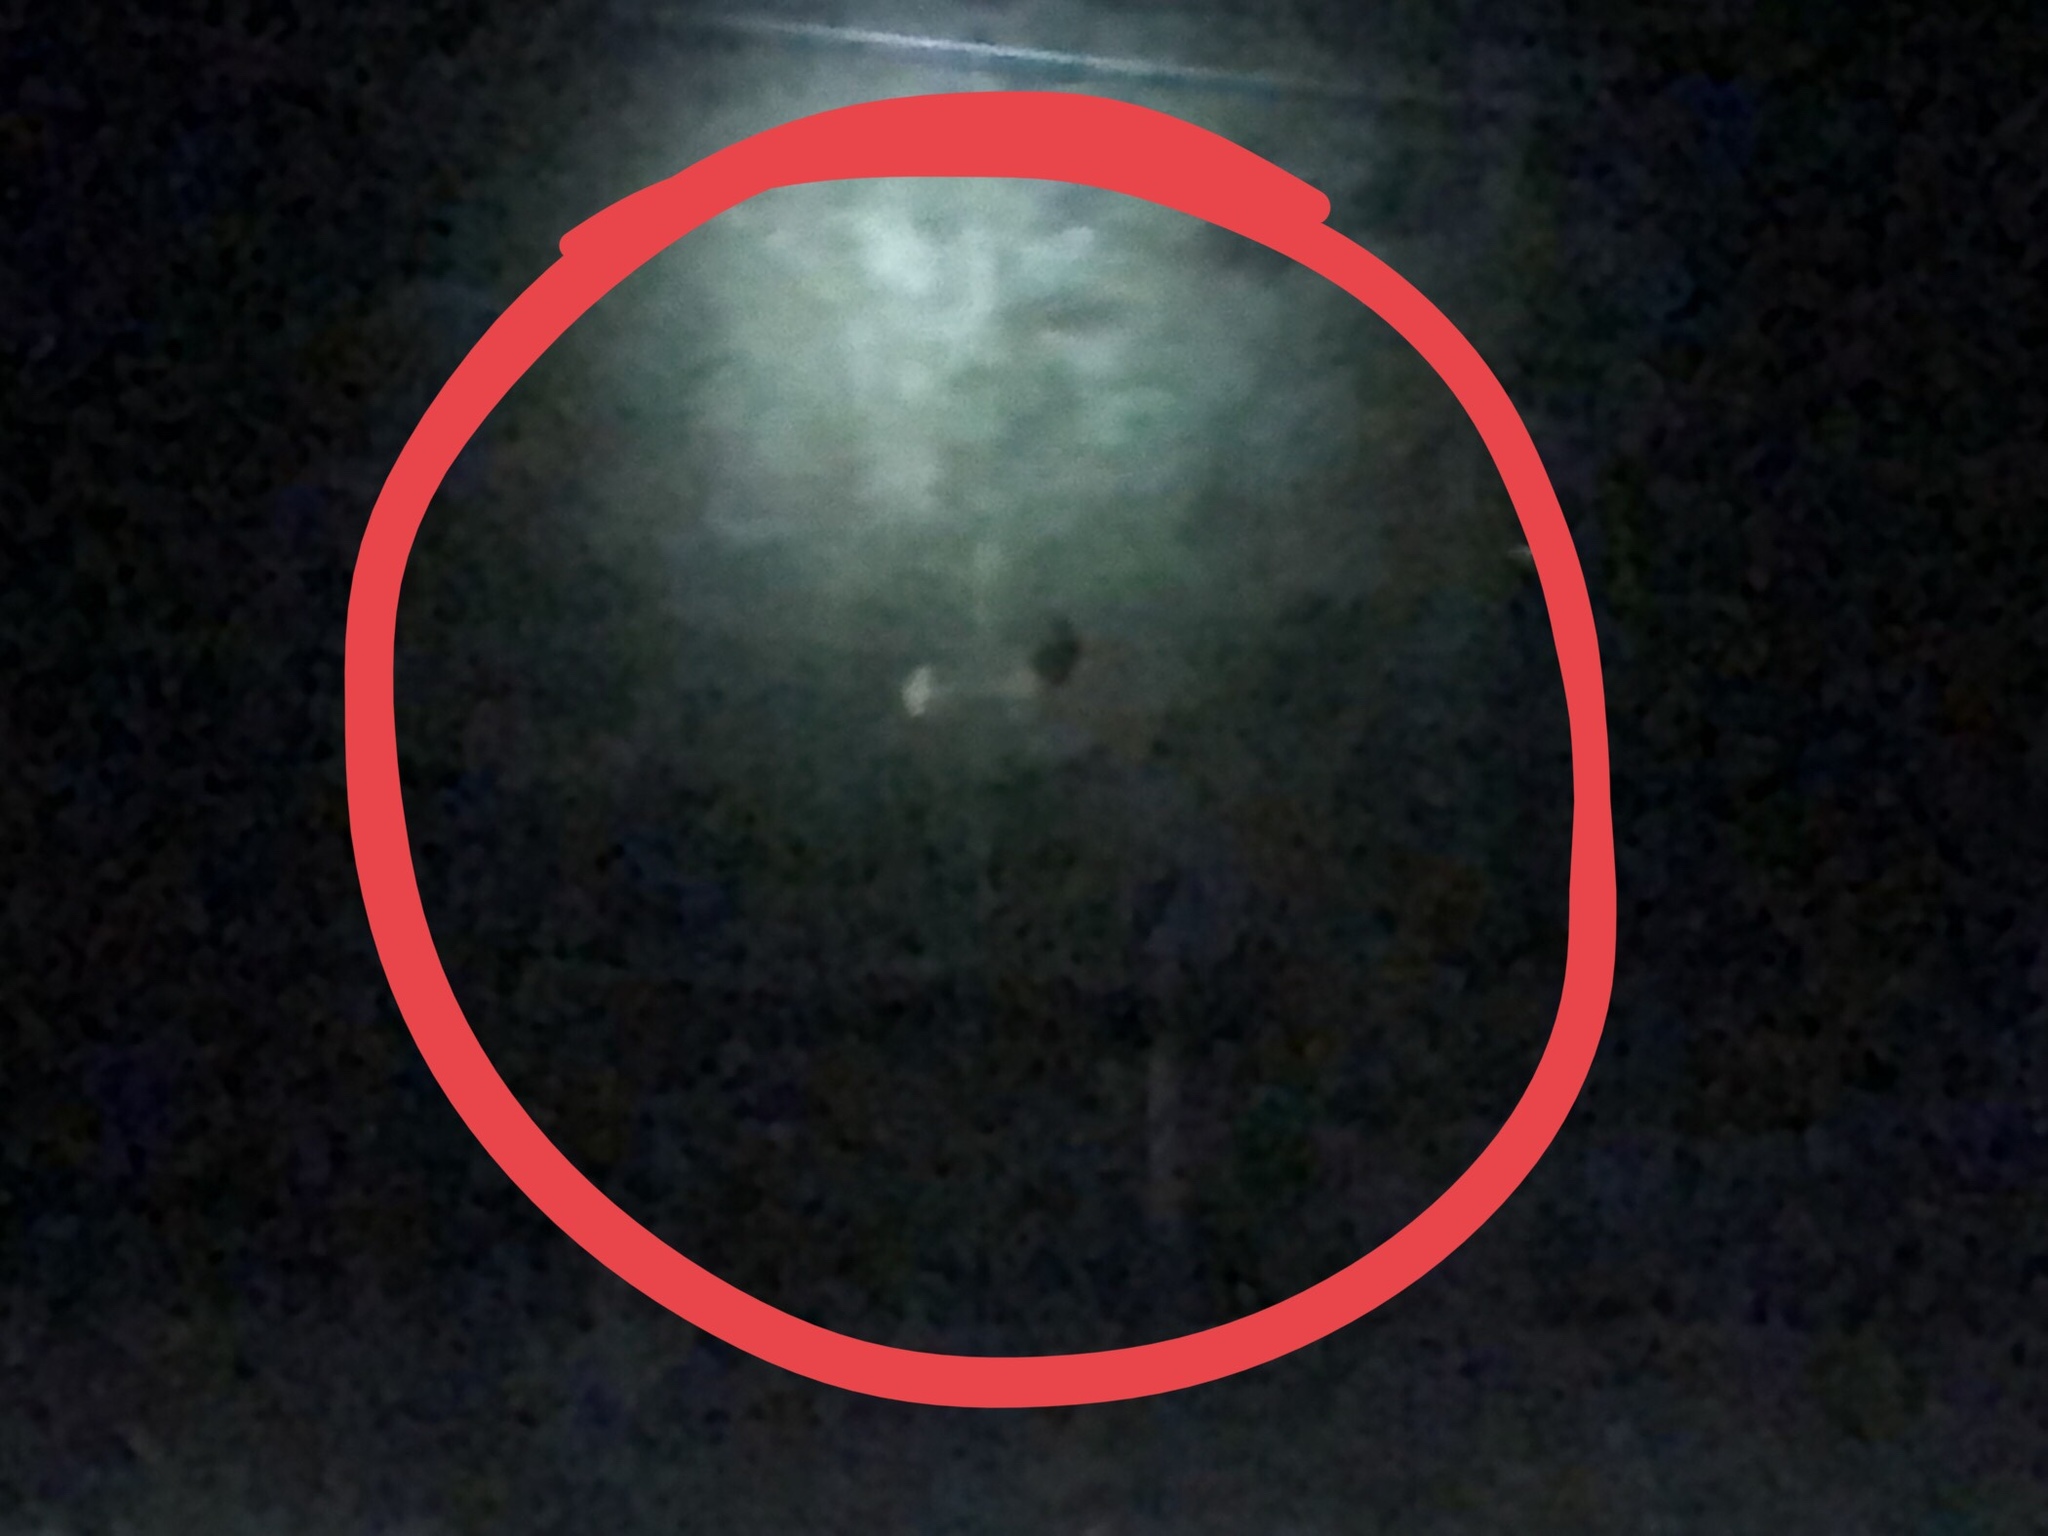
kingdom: Animalia
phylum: Chordata
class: Mammalia
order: Artiodactyla
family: Cervidae
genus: Cervus
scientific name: Cervus elaphus
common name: Red deer
